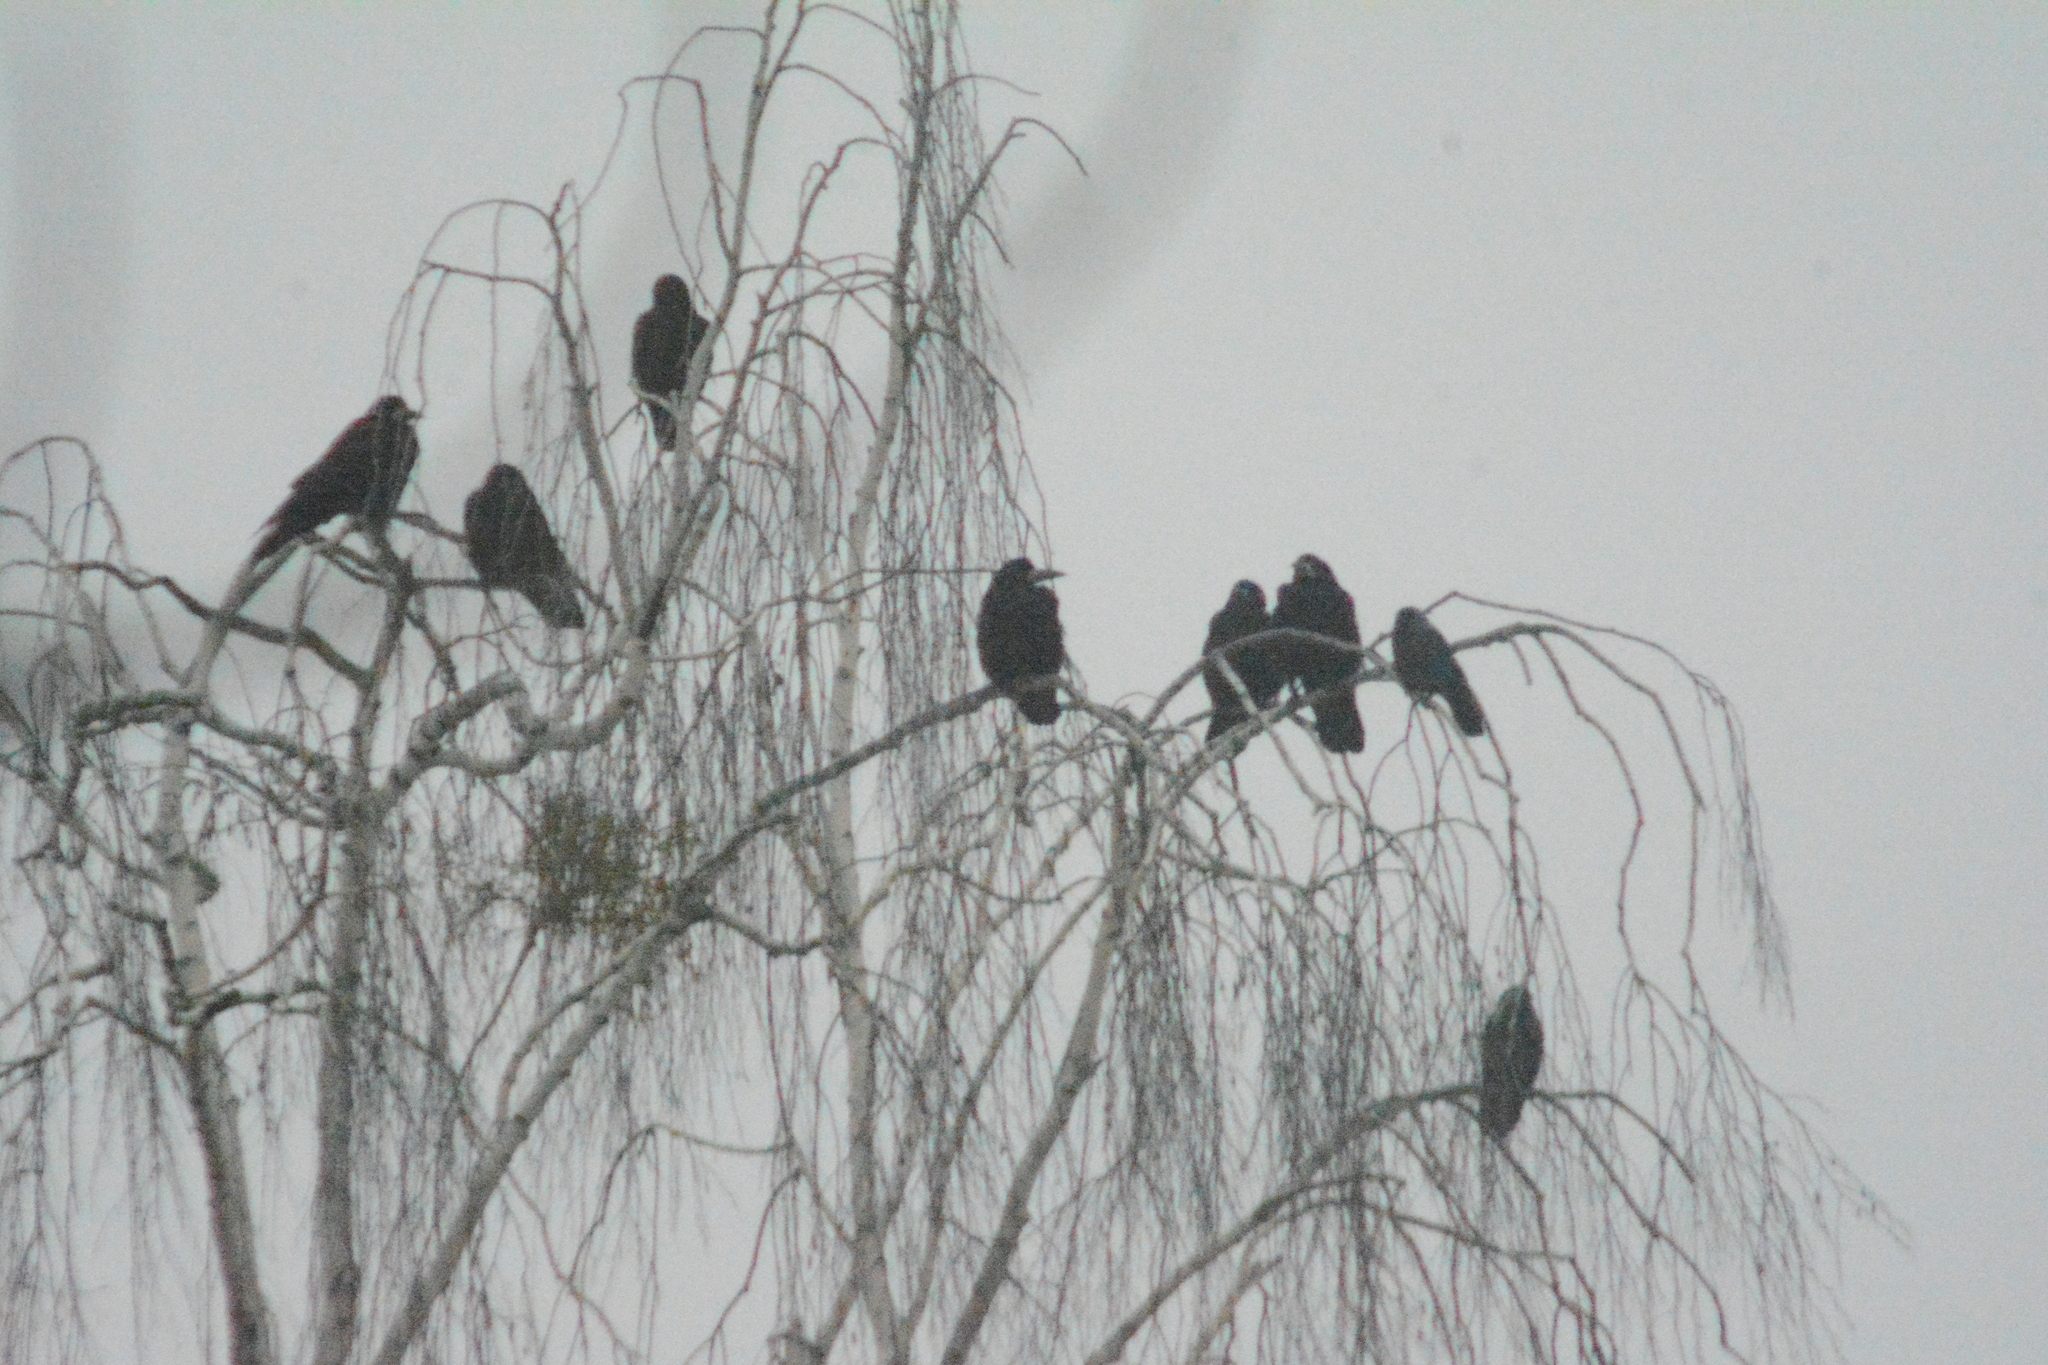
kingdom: Animalia
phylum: Chordata
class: Aves
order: Passeriformes
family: Corvidae
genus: Corvus
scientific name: Corvus frugilegus
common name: Rook
